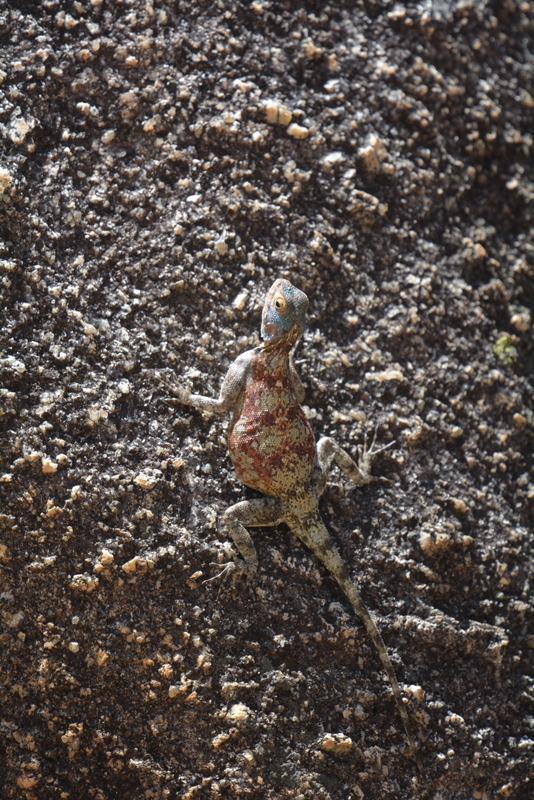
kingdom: Animalia
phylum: Chordata
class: Squamata
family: Agamidae
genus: Agama
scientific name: Agama kirkii
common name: Kirk's rock agama
